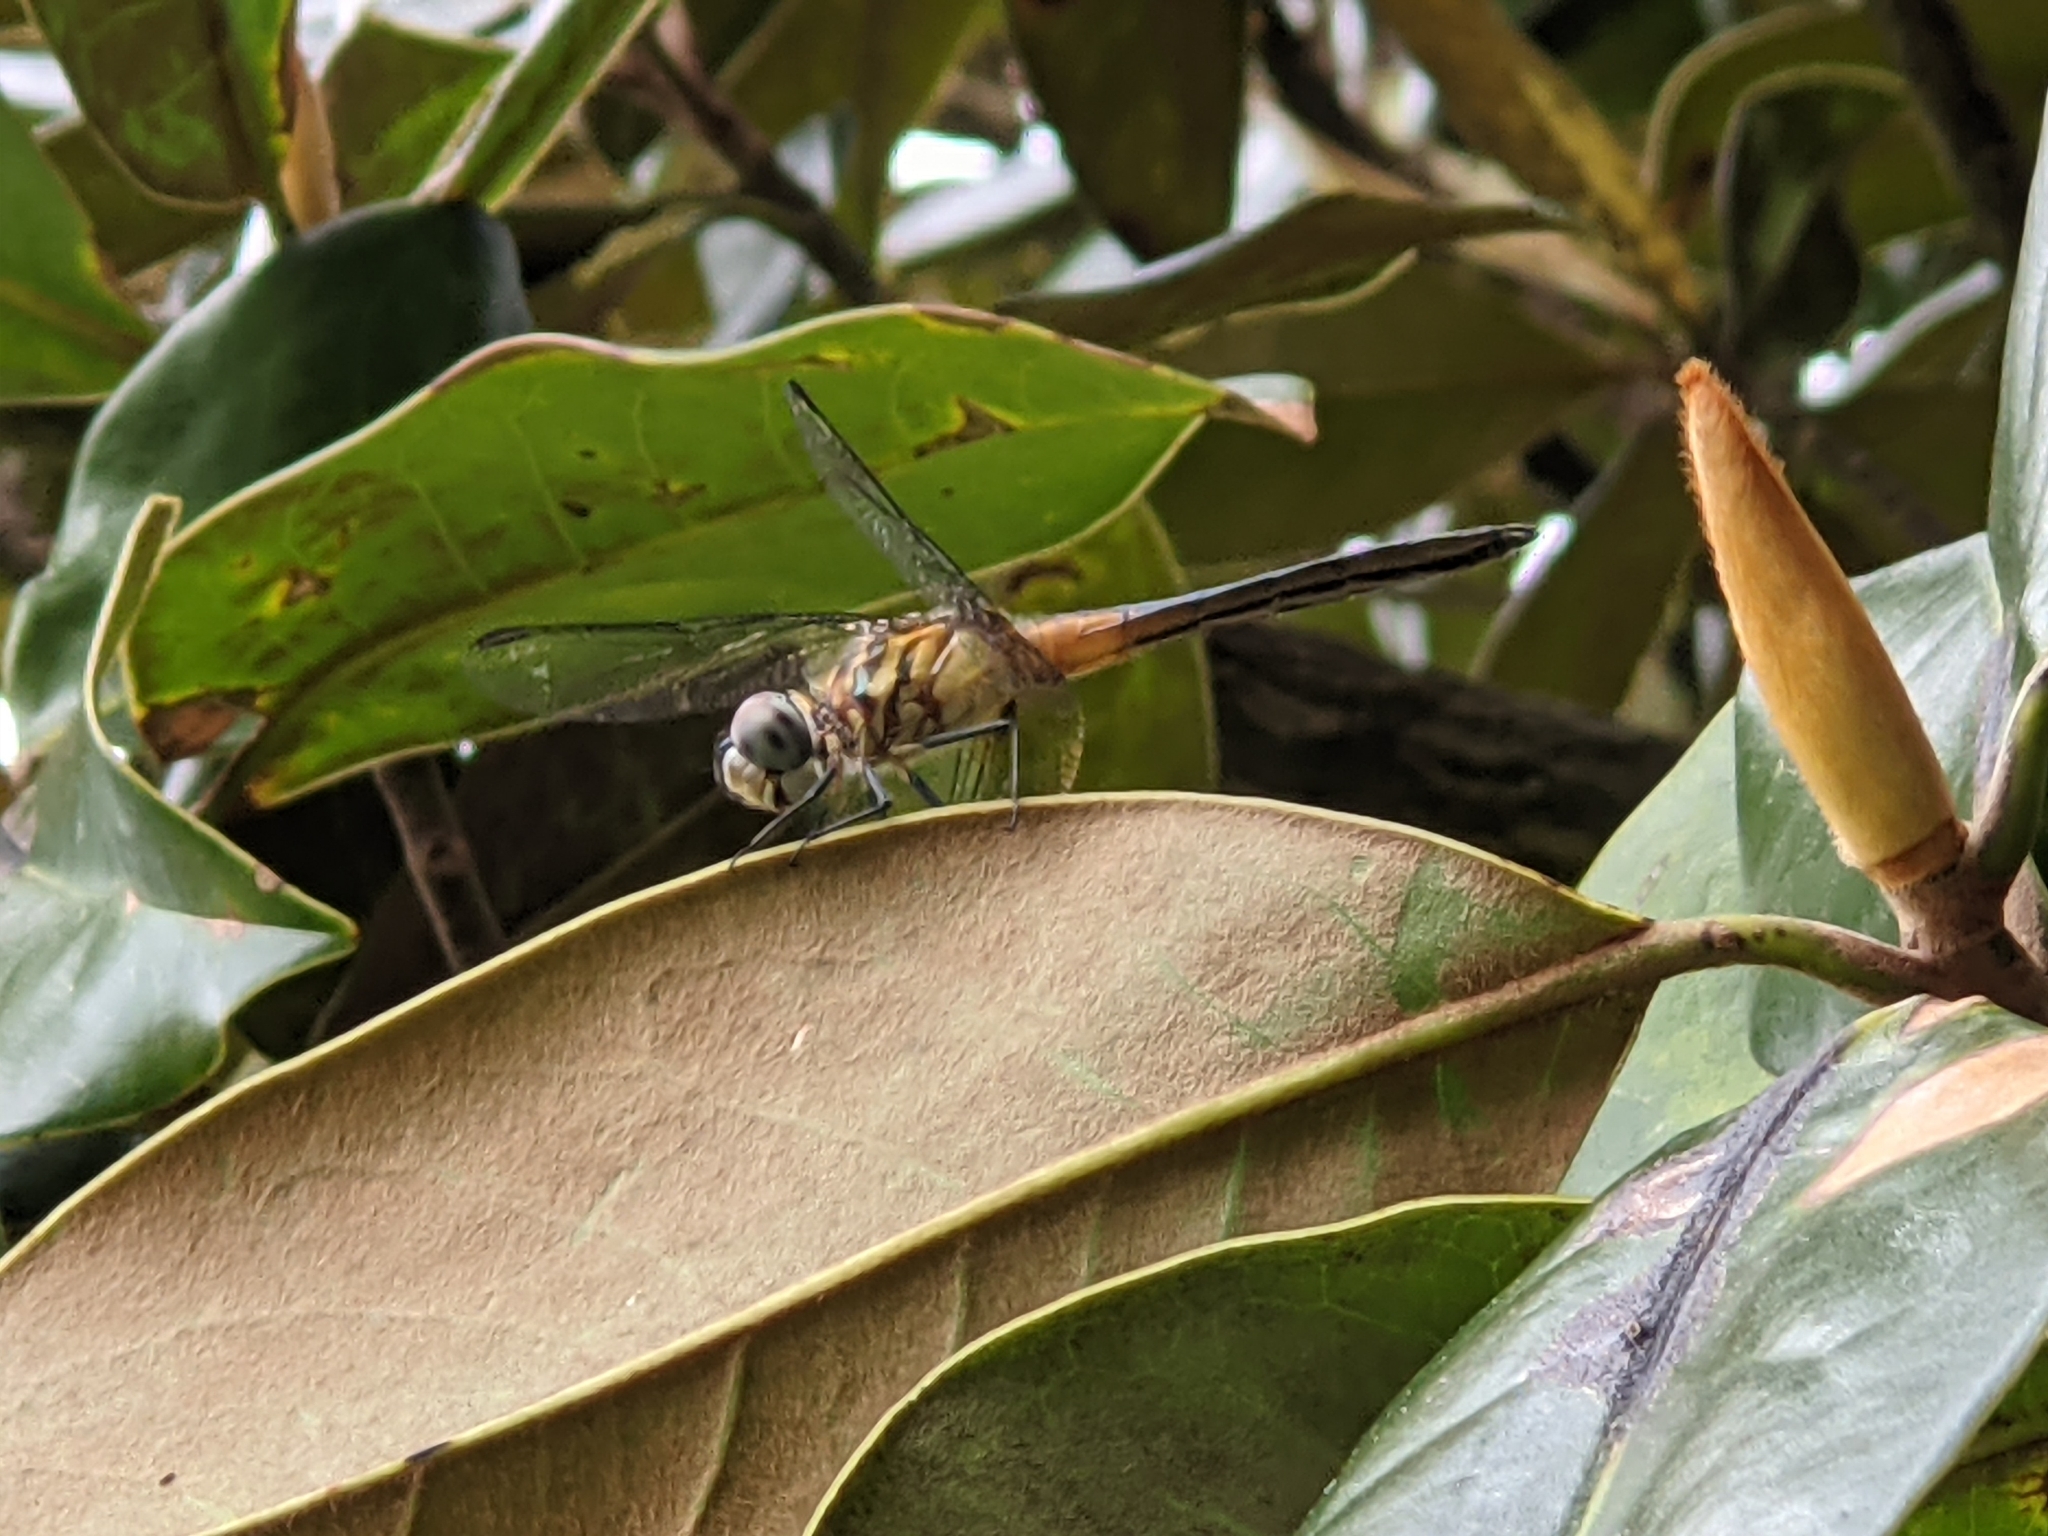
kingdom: Animalia
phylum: Arthropoda
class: Insecta
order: Odonata
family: Libellulidae
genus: Pachydiplax
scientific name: Pachydiplax longipennis
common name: Blue dasher
